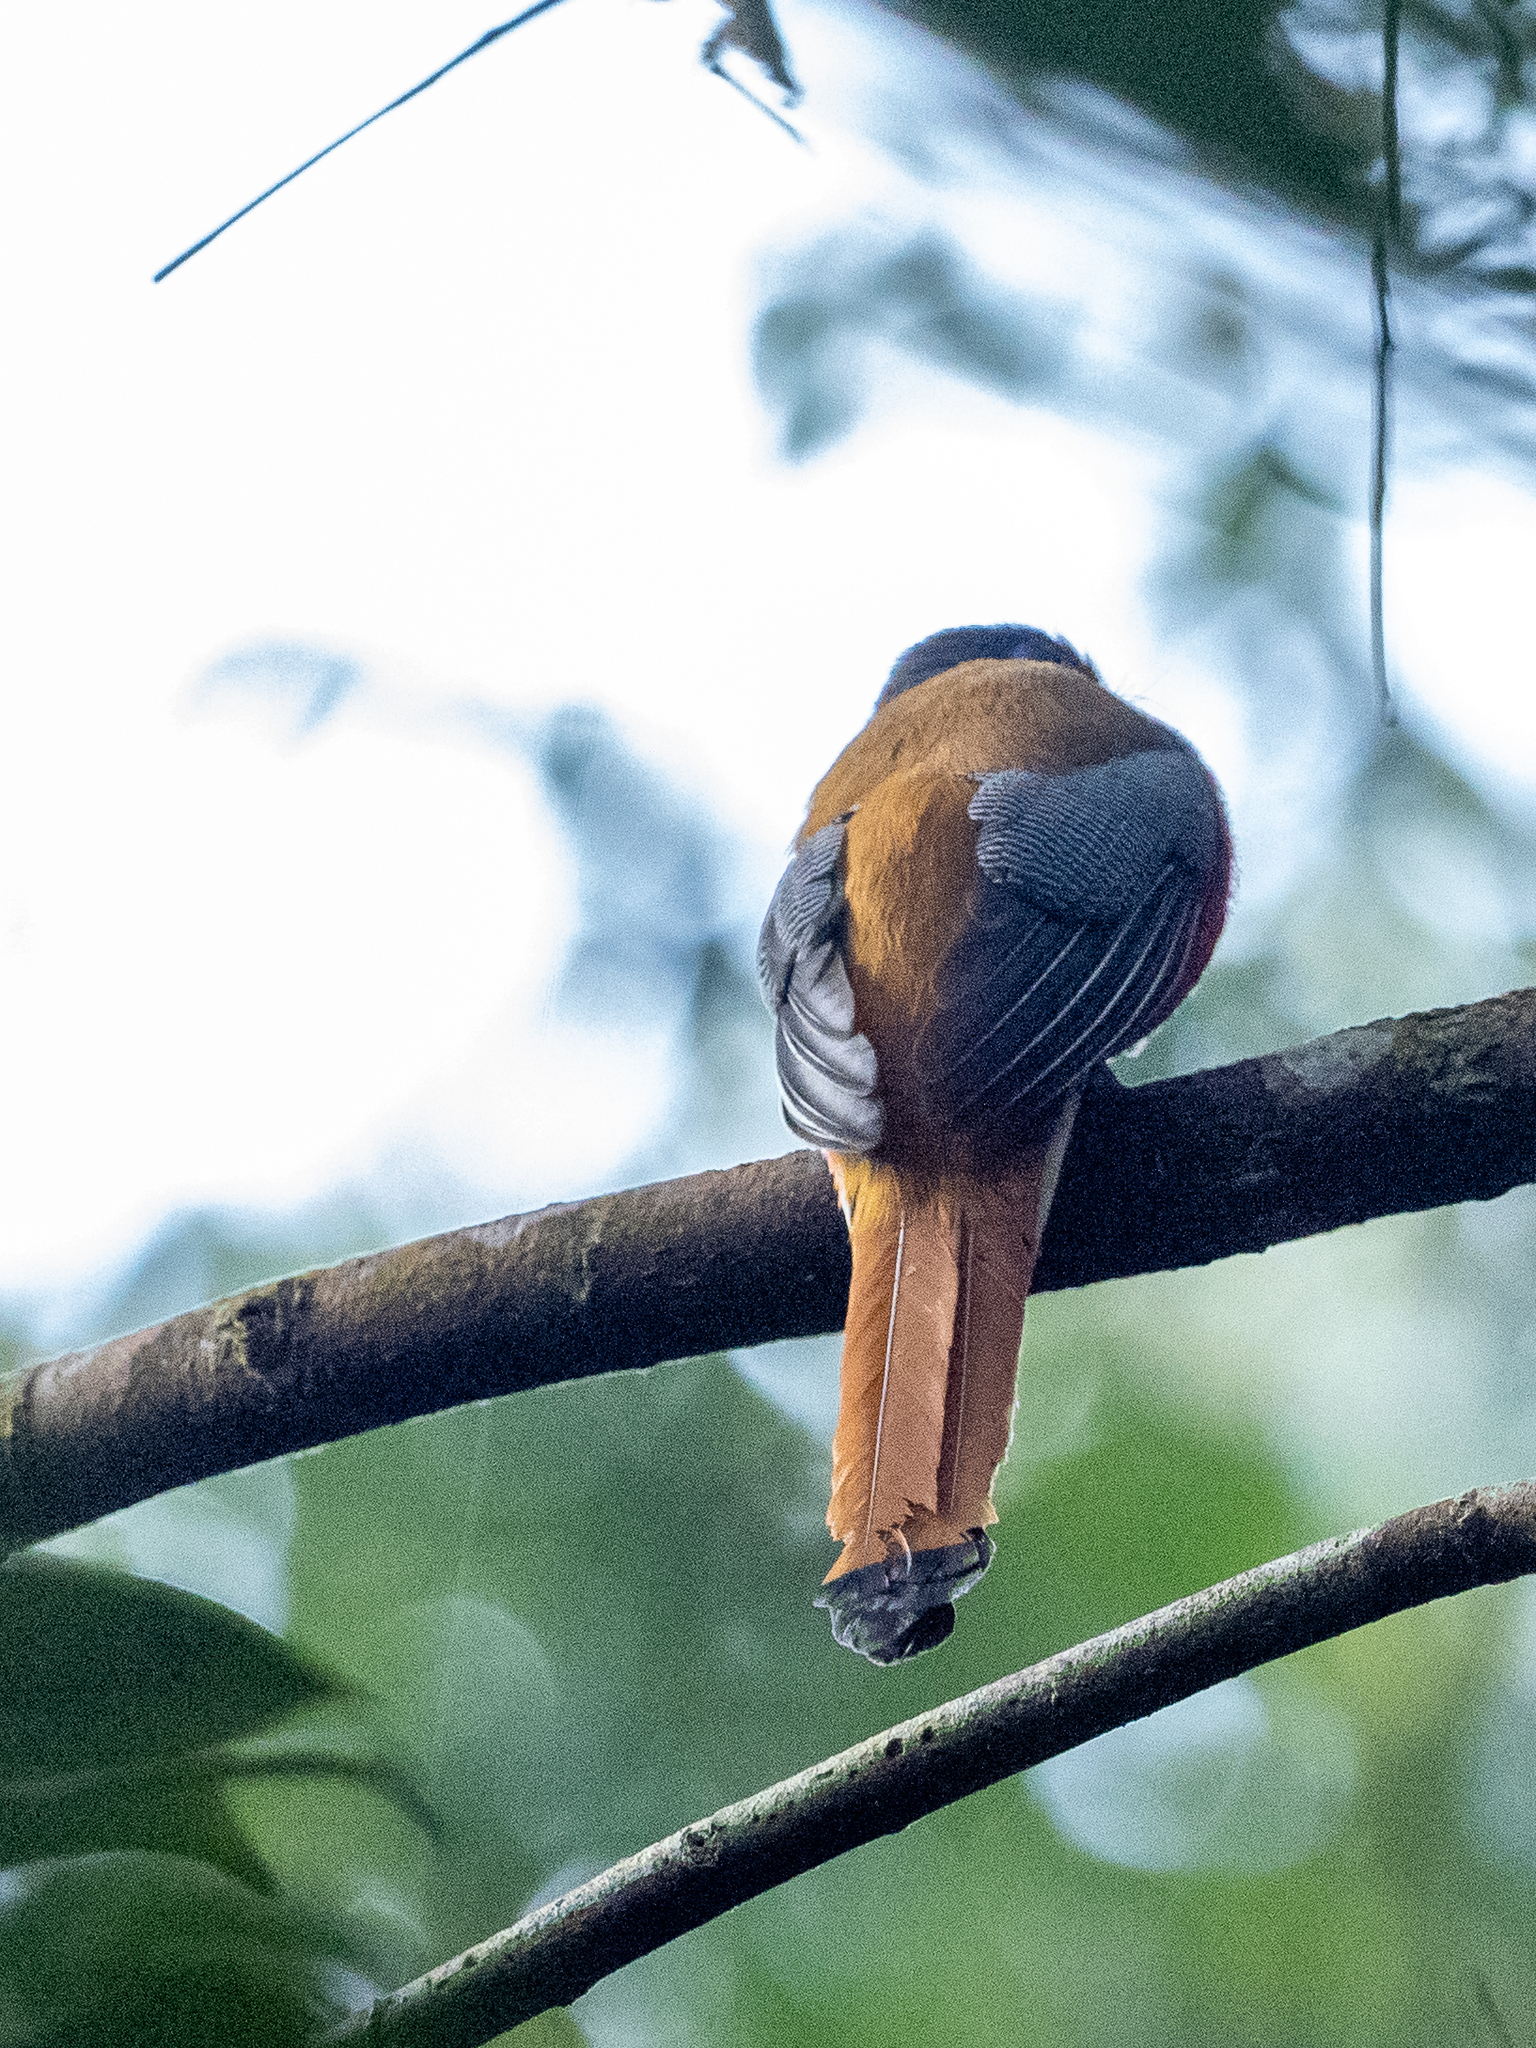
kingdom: Animalia
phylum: Chordata
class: Aves
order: Trogoniformes
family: Trogonidae
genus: Harpactes
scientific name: Harpactes fasciatus
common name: Malabar trogon
